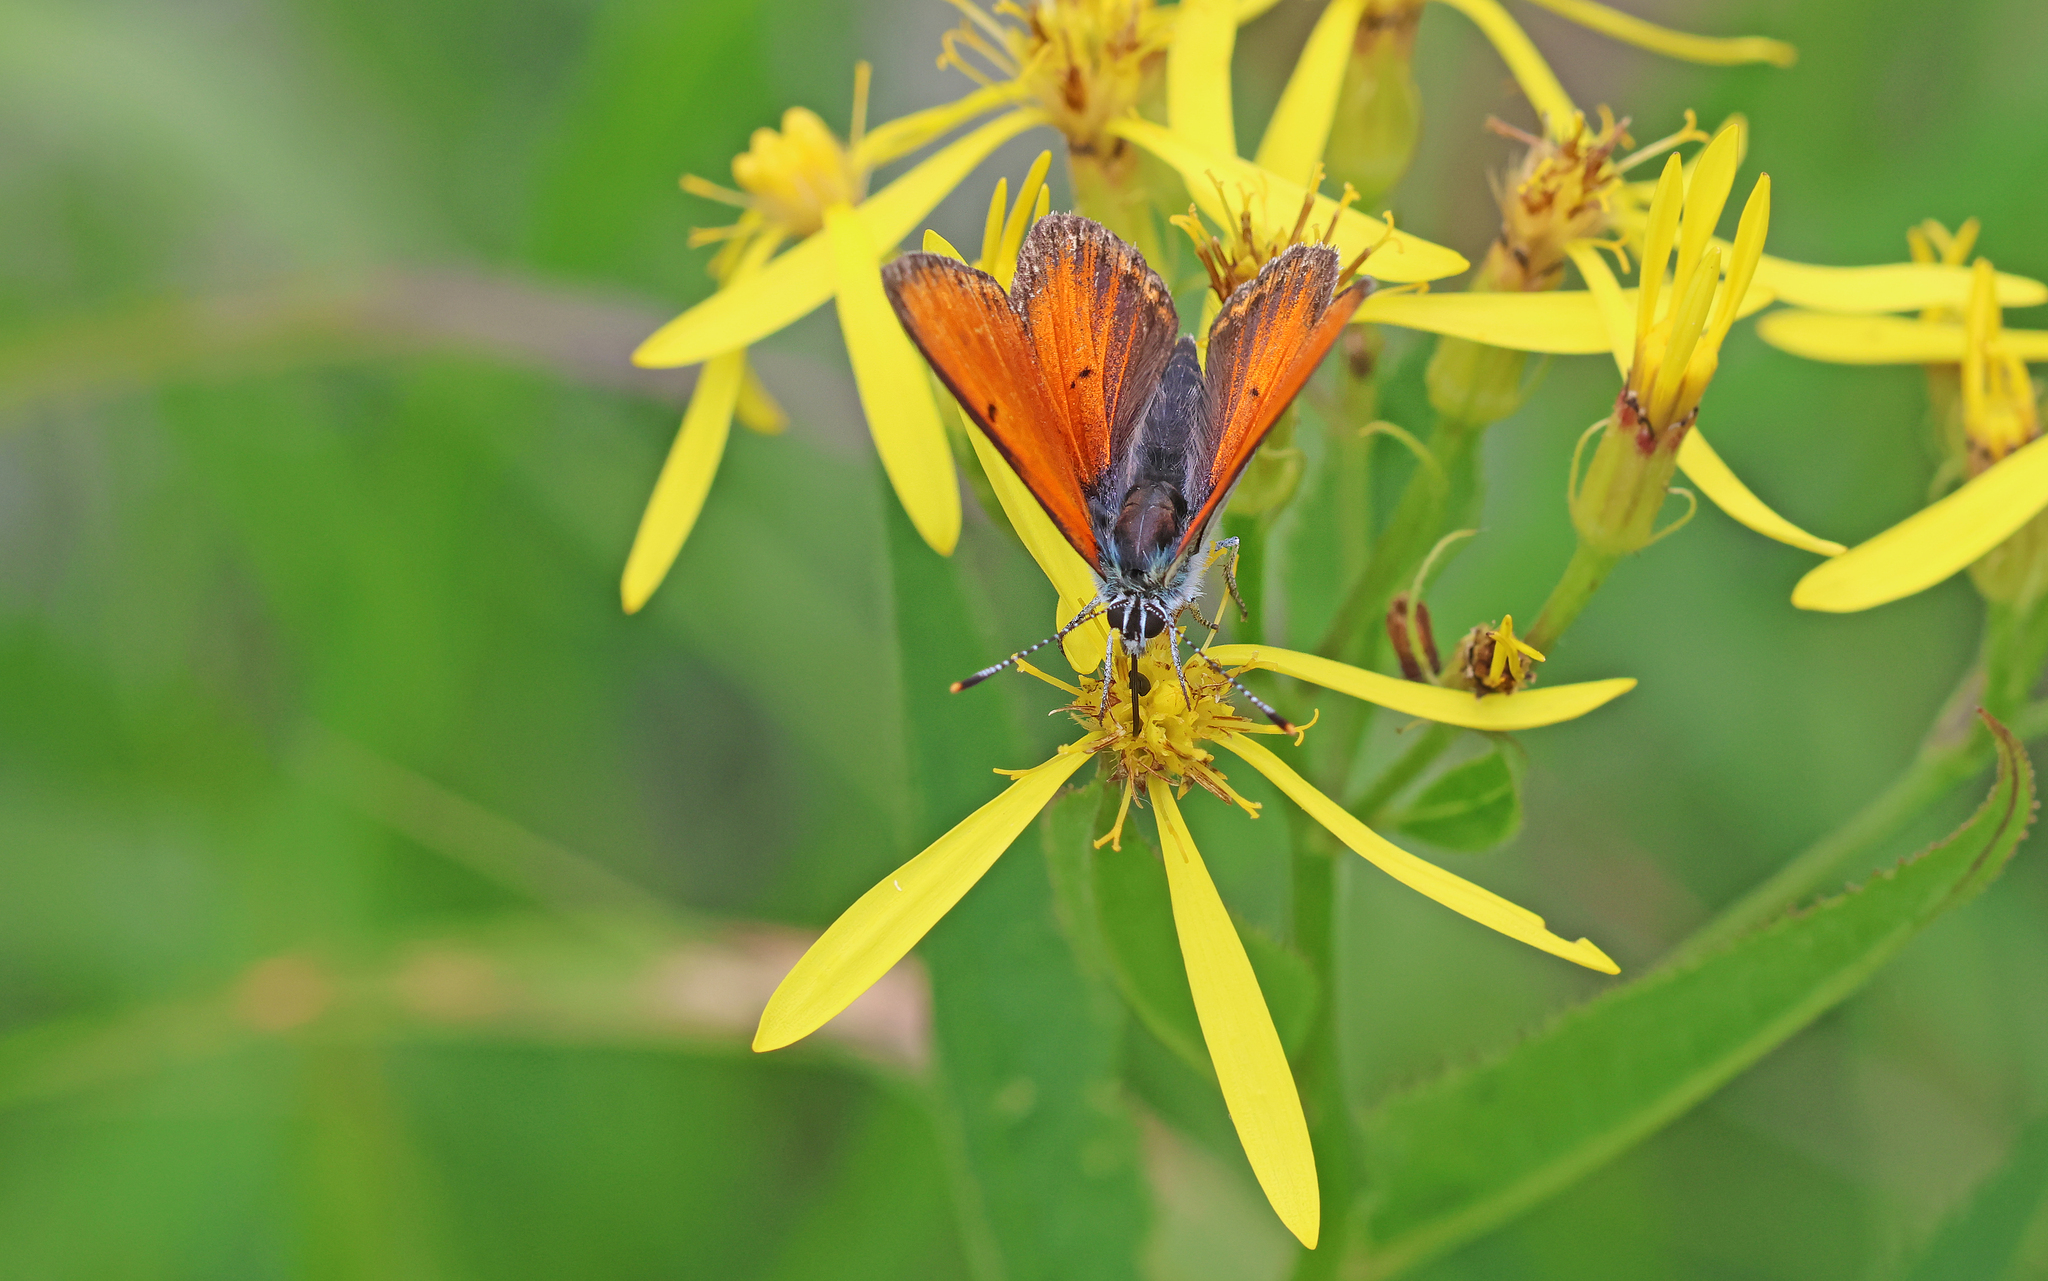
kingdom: Animalia
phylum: Arthropoda
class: Insecta
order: Lepidoptera
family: Lycaenidae
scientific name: Lycaenidae
